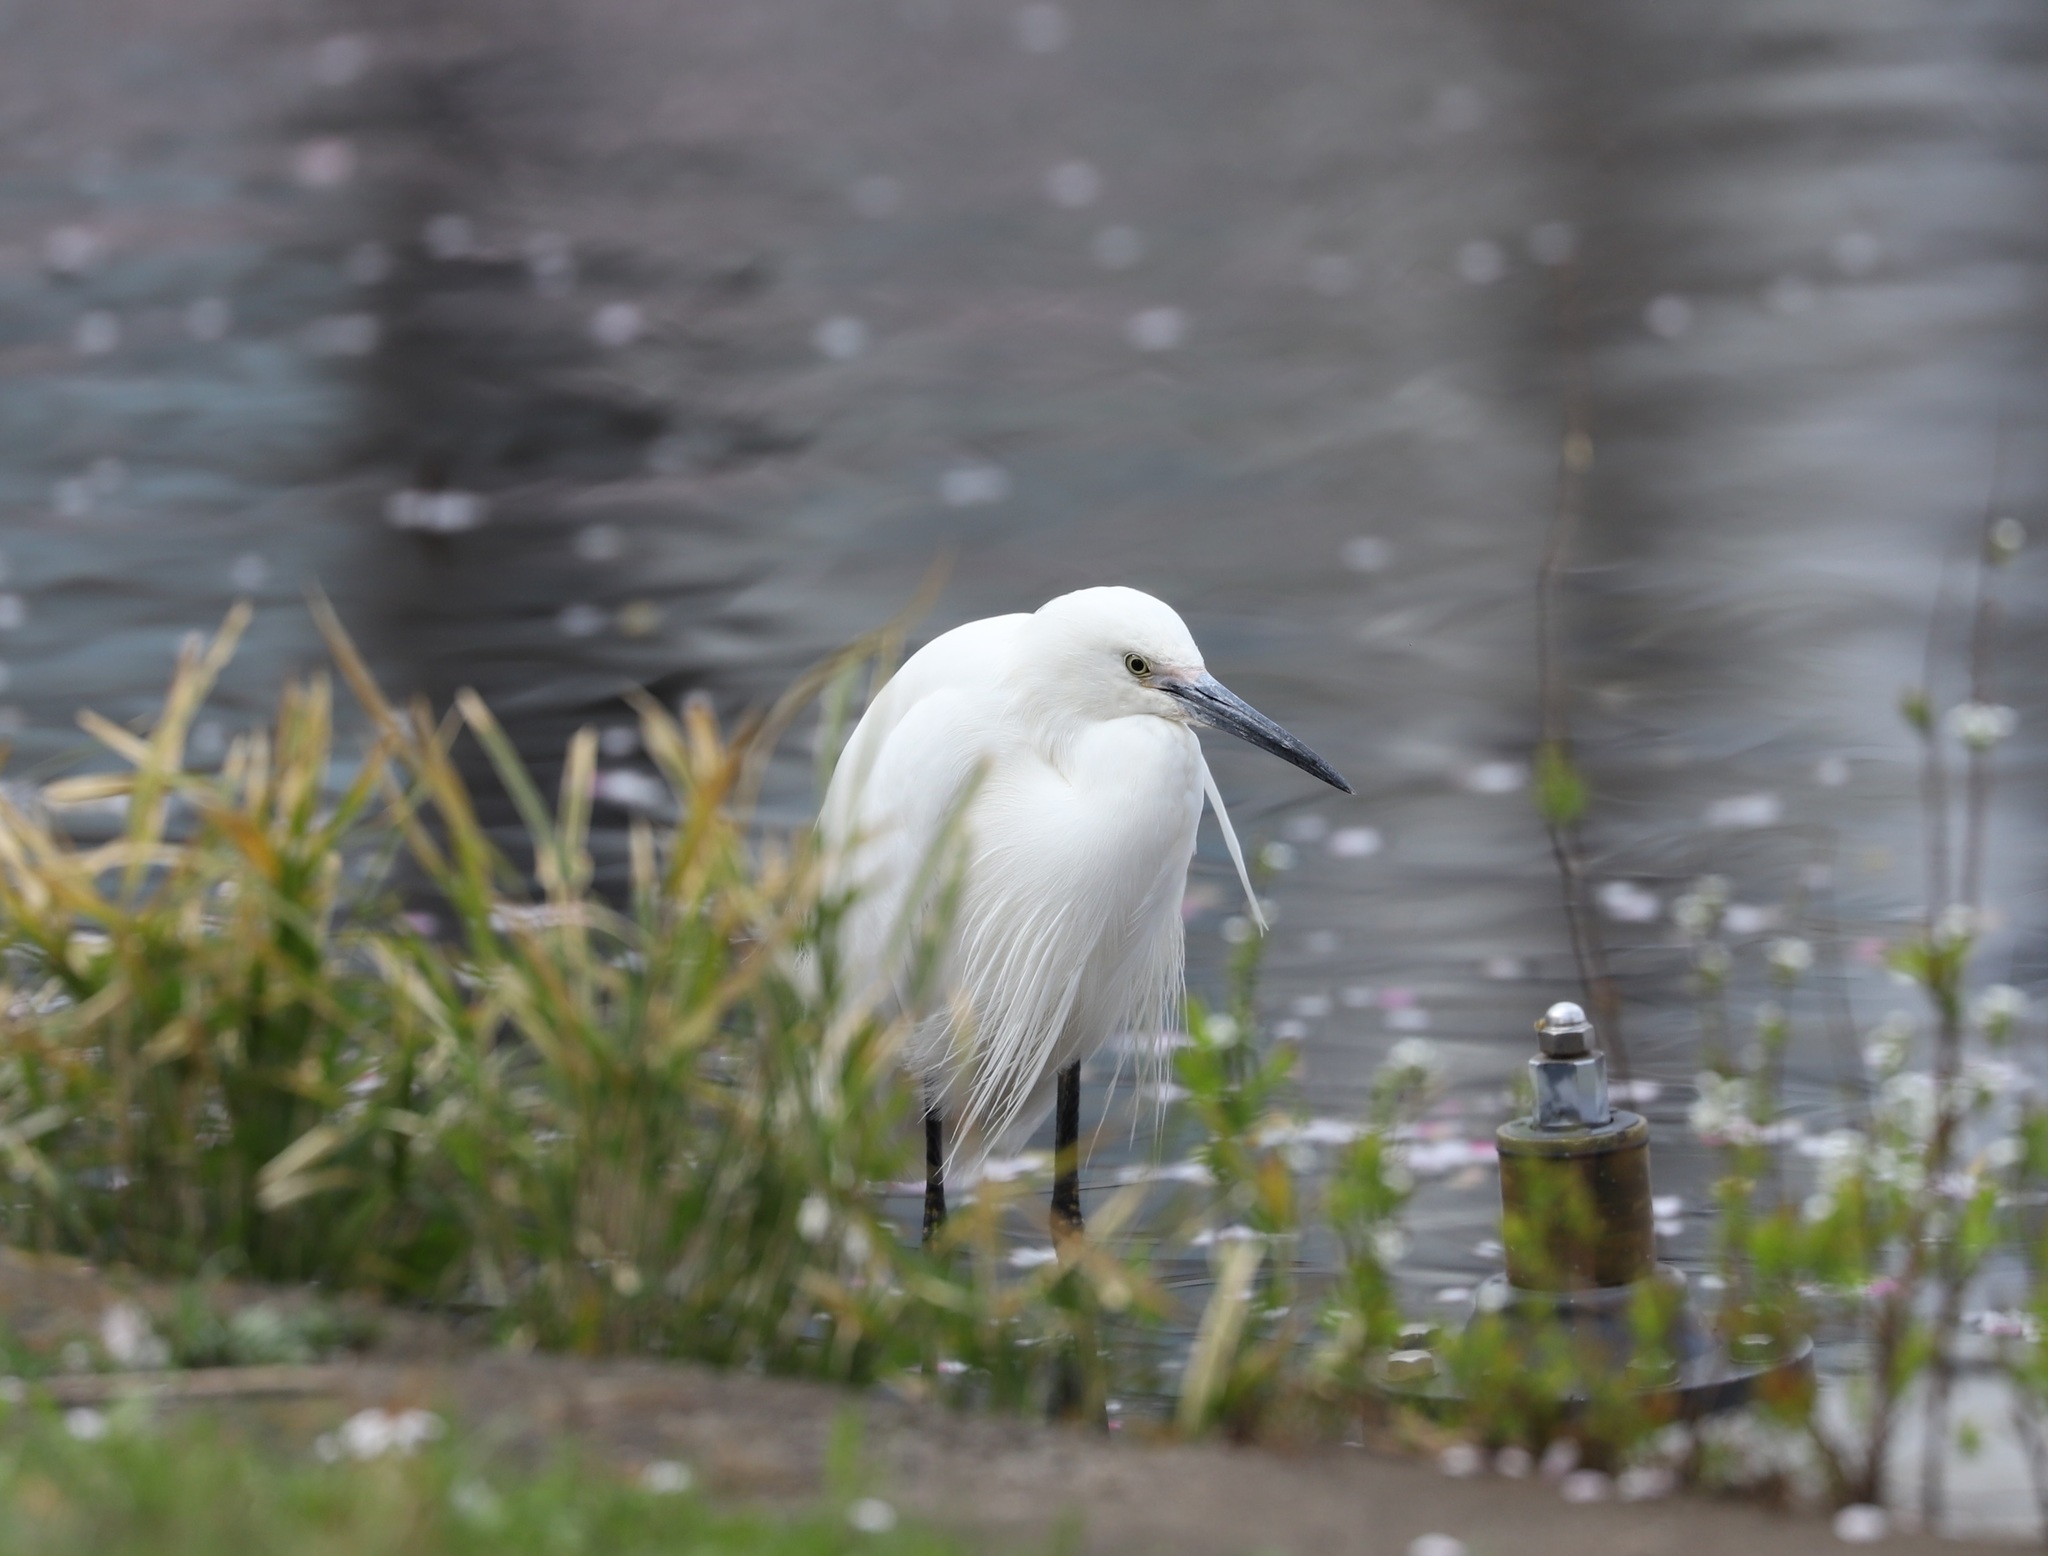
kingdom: Animalia
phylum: Chordata
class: Aves
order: Pelecaniformes
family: Ardeidae
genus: Egretta
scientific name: Egretta garzetta
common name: Little egret
